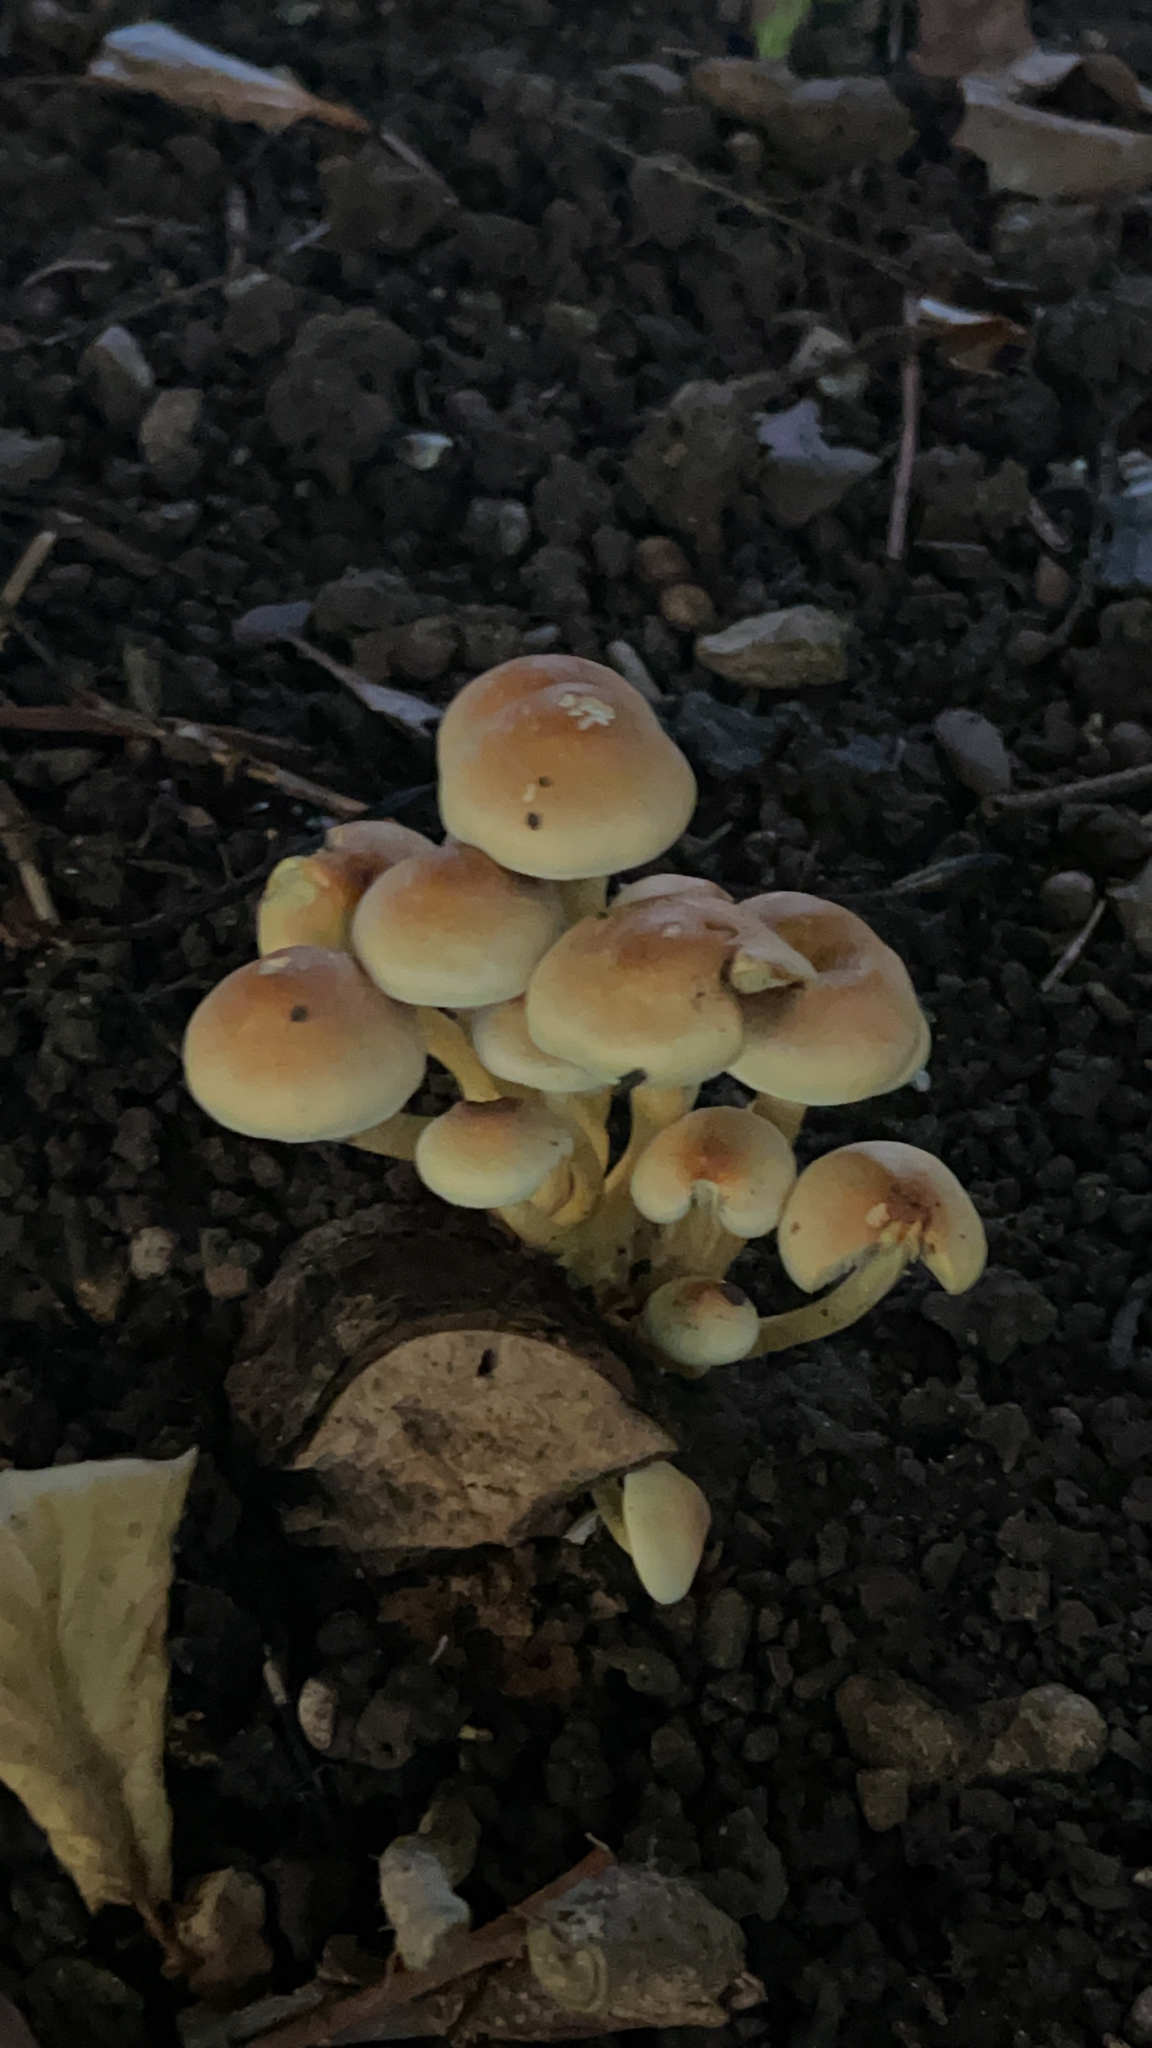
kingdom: Fungi
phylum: Basidiomycota
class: Agaricomycetes
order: Agaricales
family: Strophariaceae
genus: Hypholoma
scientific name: Hypholoma fasciculare
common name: Sulphur tuft
